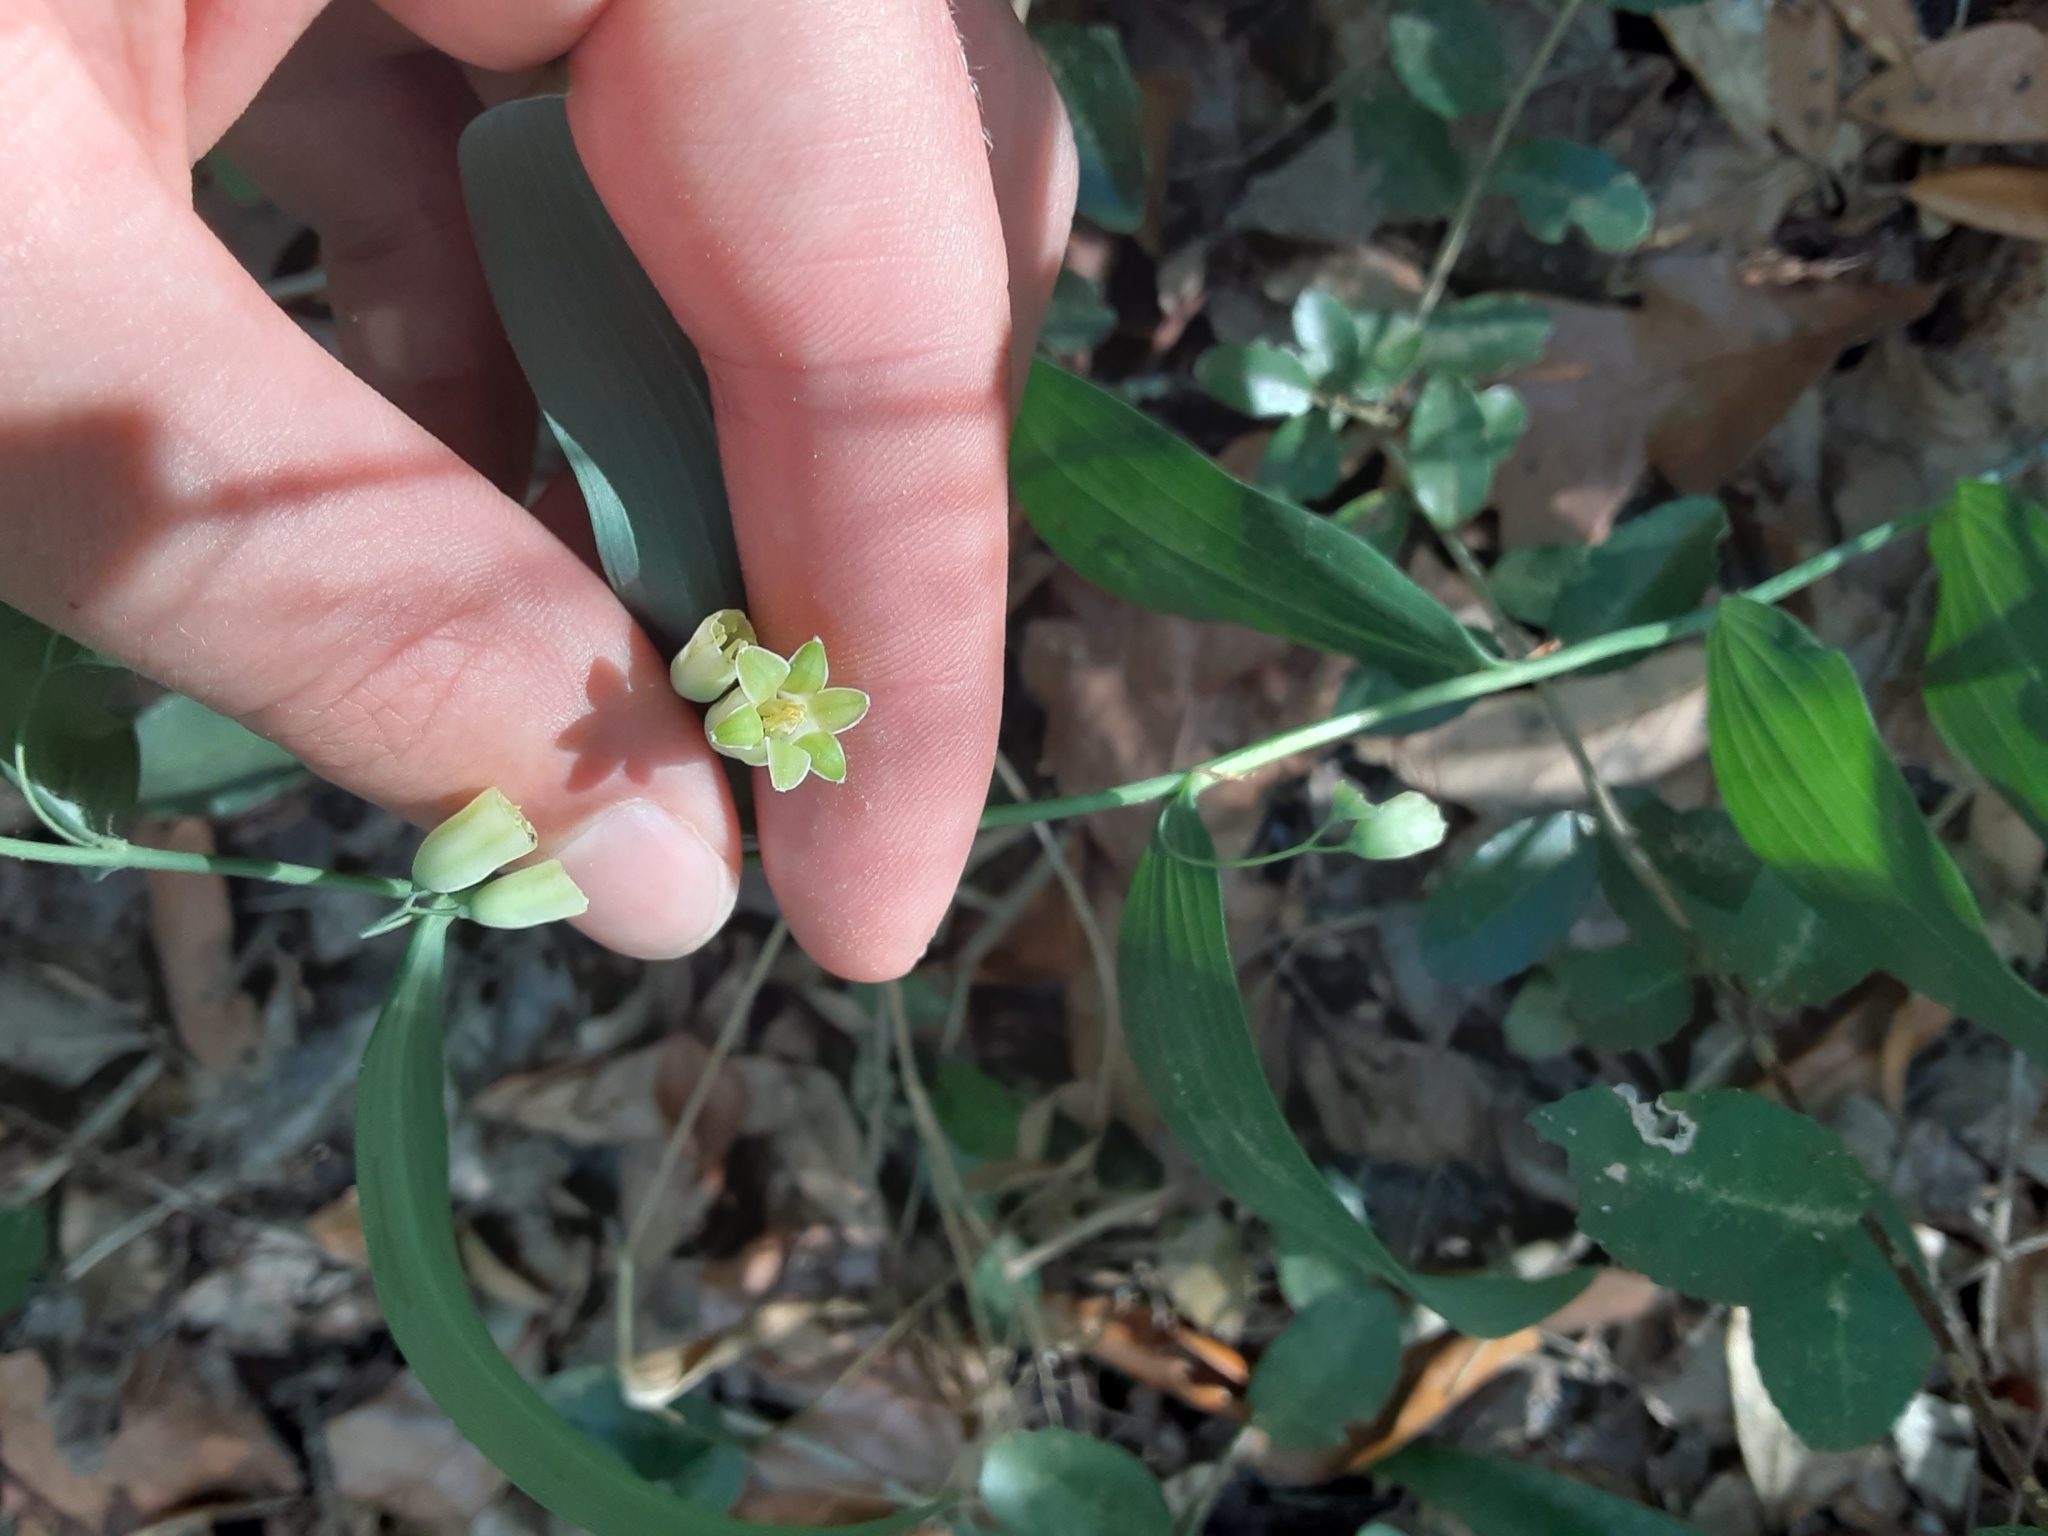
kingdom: Plantae
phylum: Tracheophyta
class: Liliopsida
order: Asparagales
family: Asparagaceae
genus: Polygonatum
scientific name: Polygonatum biflorum
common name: American solomon's-seal
